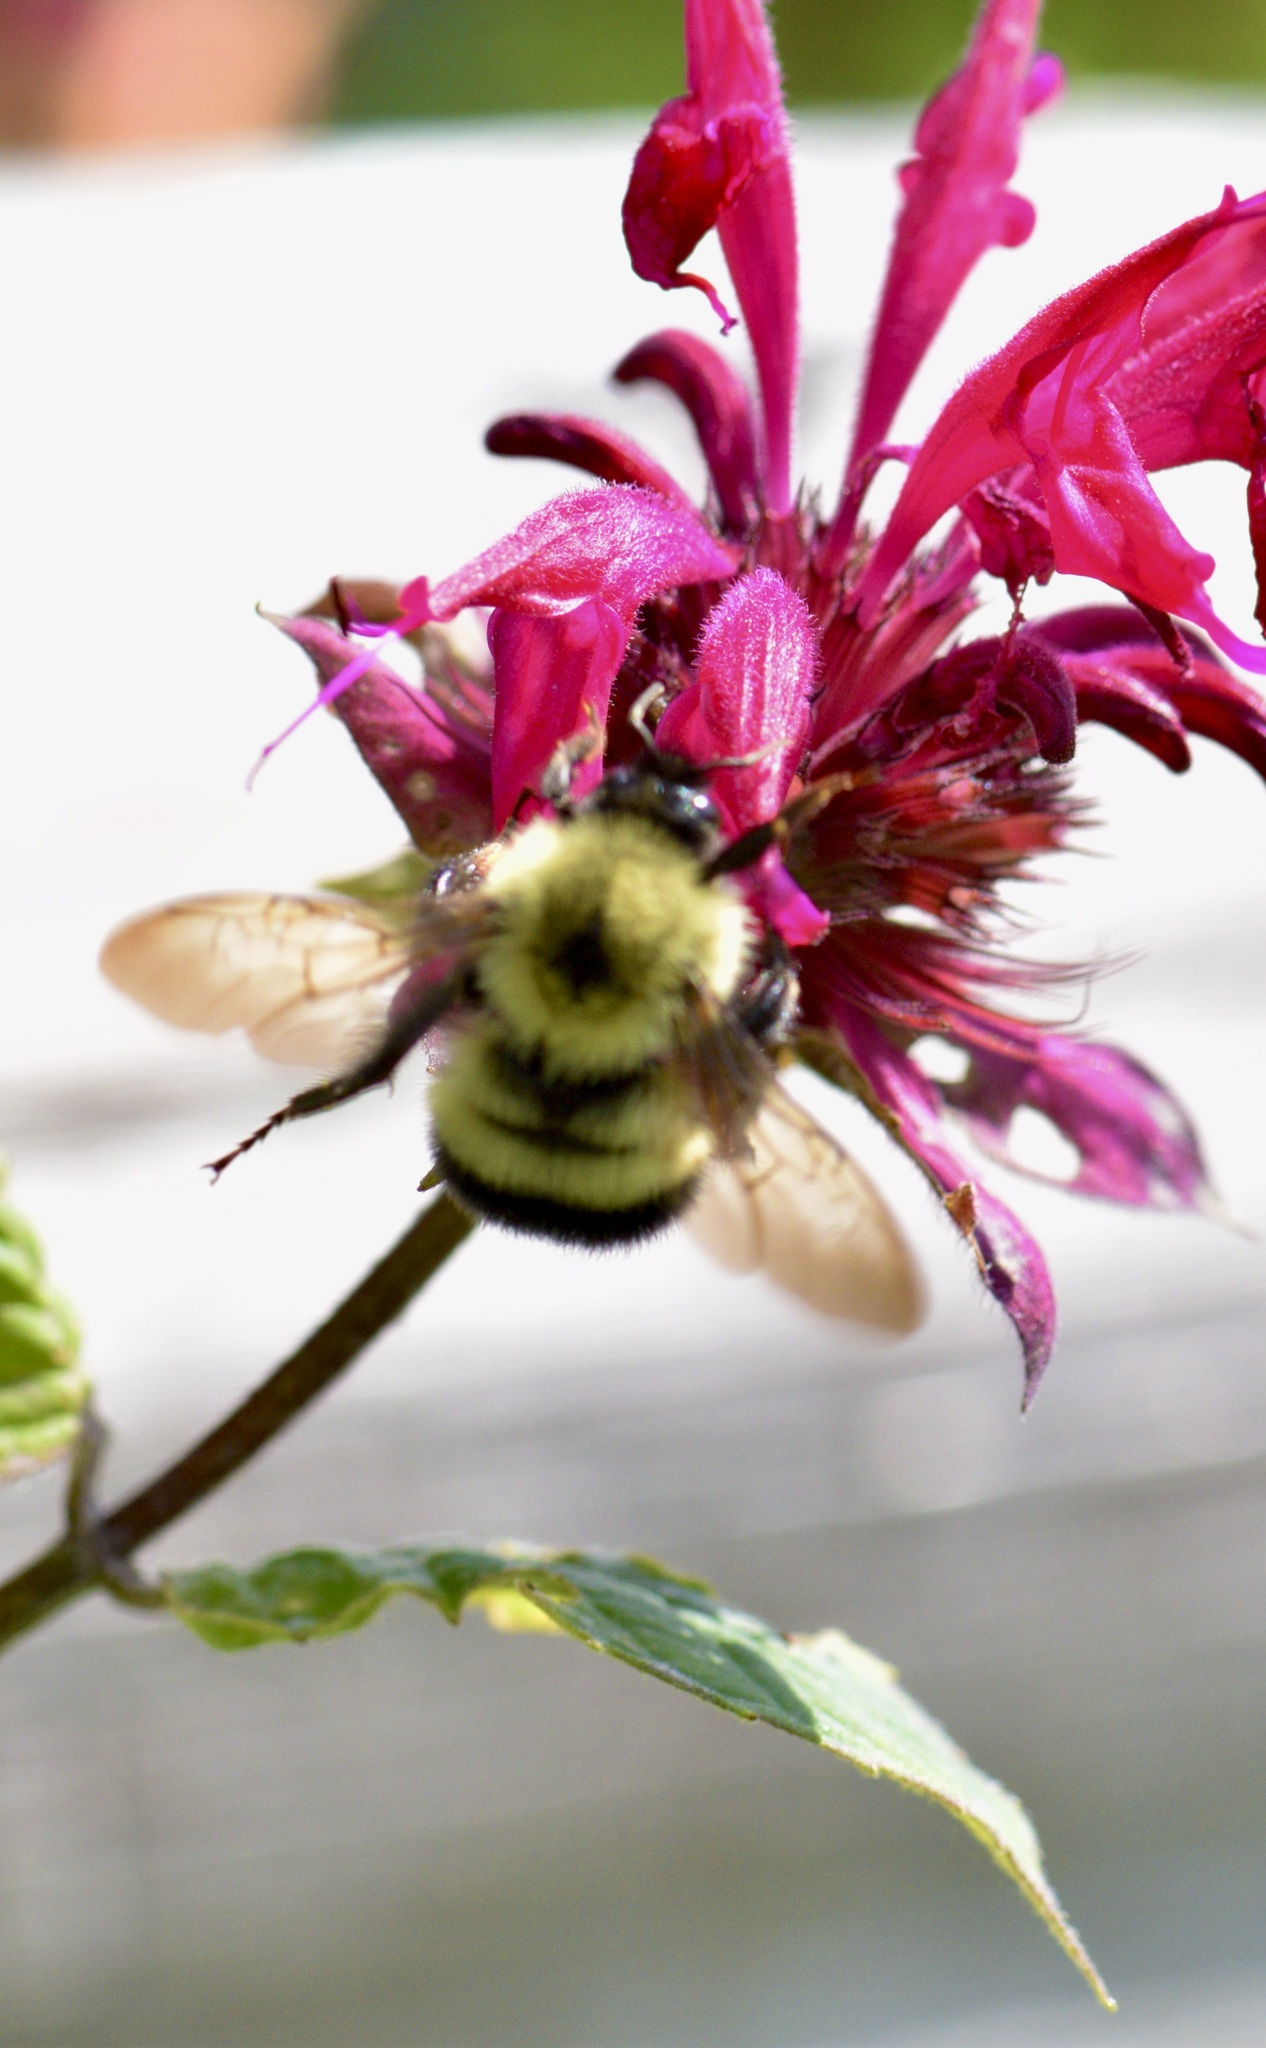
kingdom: Animalia
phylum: Arthropoda
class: Insecta
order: Hymenoptera
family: Apidae
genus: Pyrobombus
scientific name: Pyrobombus
